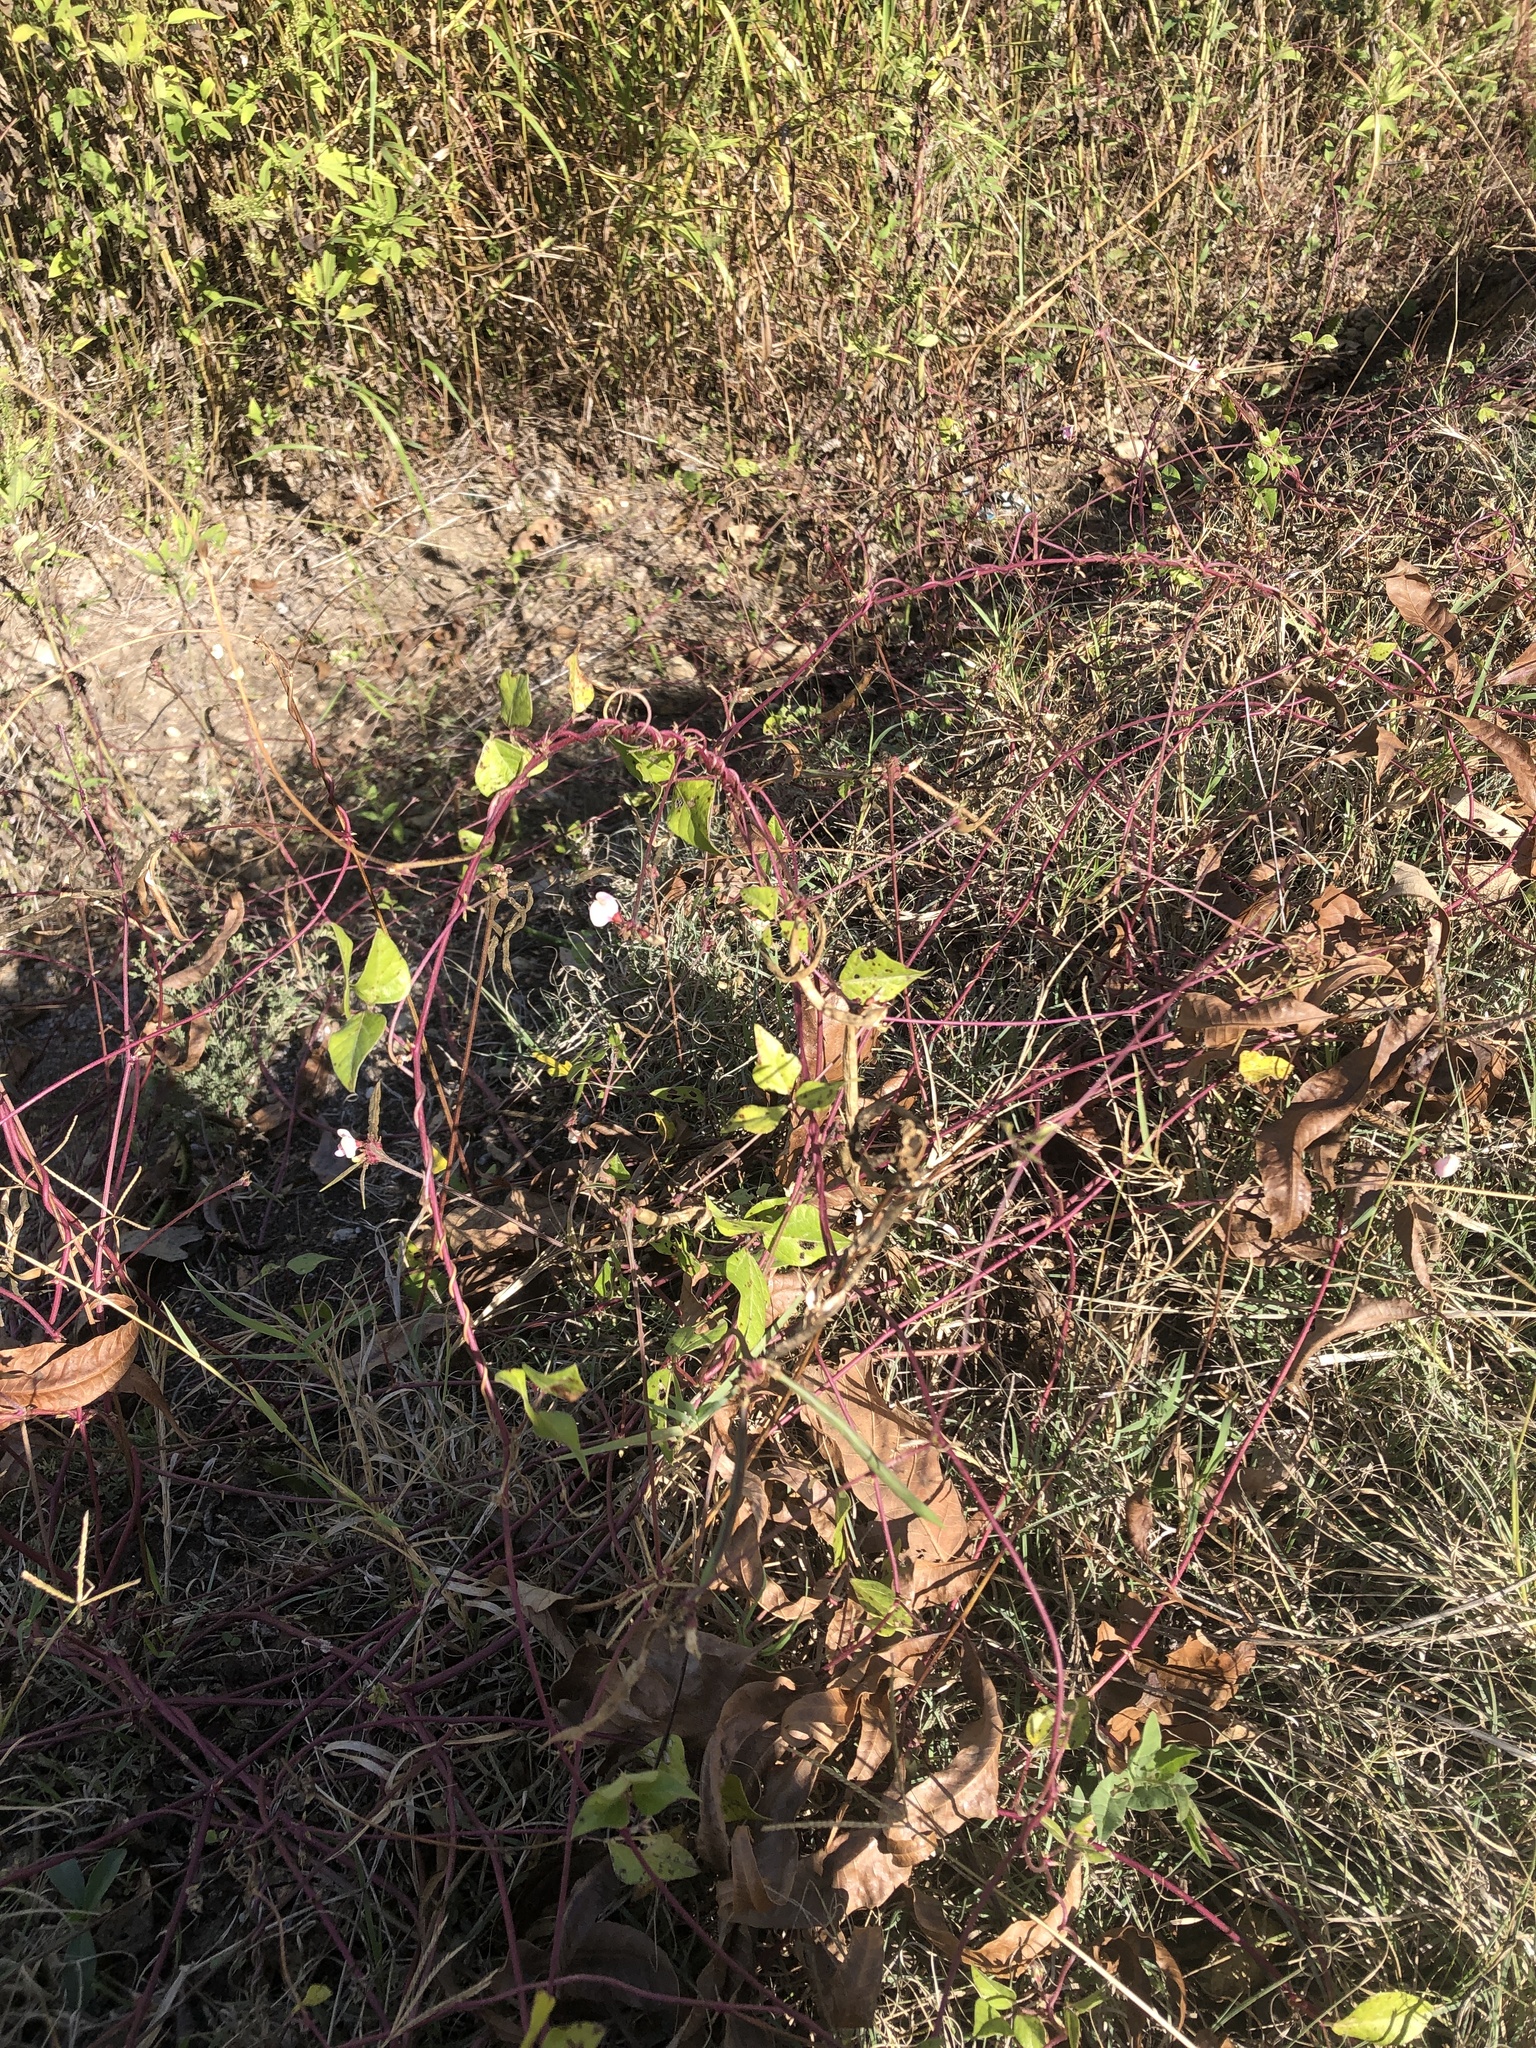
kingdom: Plantae
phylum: Tracheophyta
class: Magnoliopsida
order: Fabales
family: Fabaceae
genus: Strophostyles
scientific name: Strophostyles helvola
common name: Trailing wild bean
